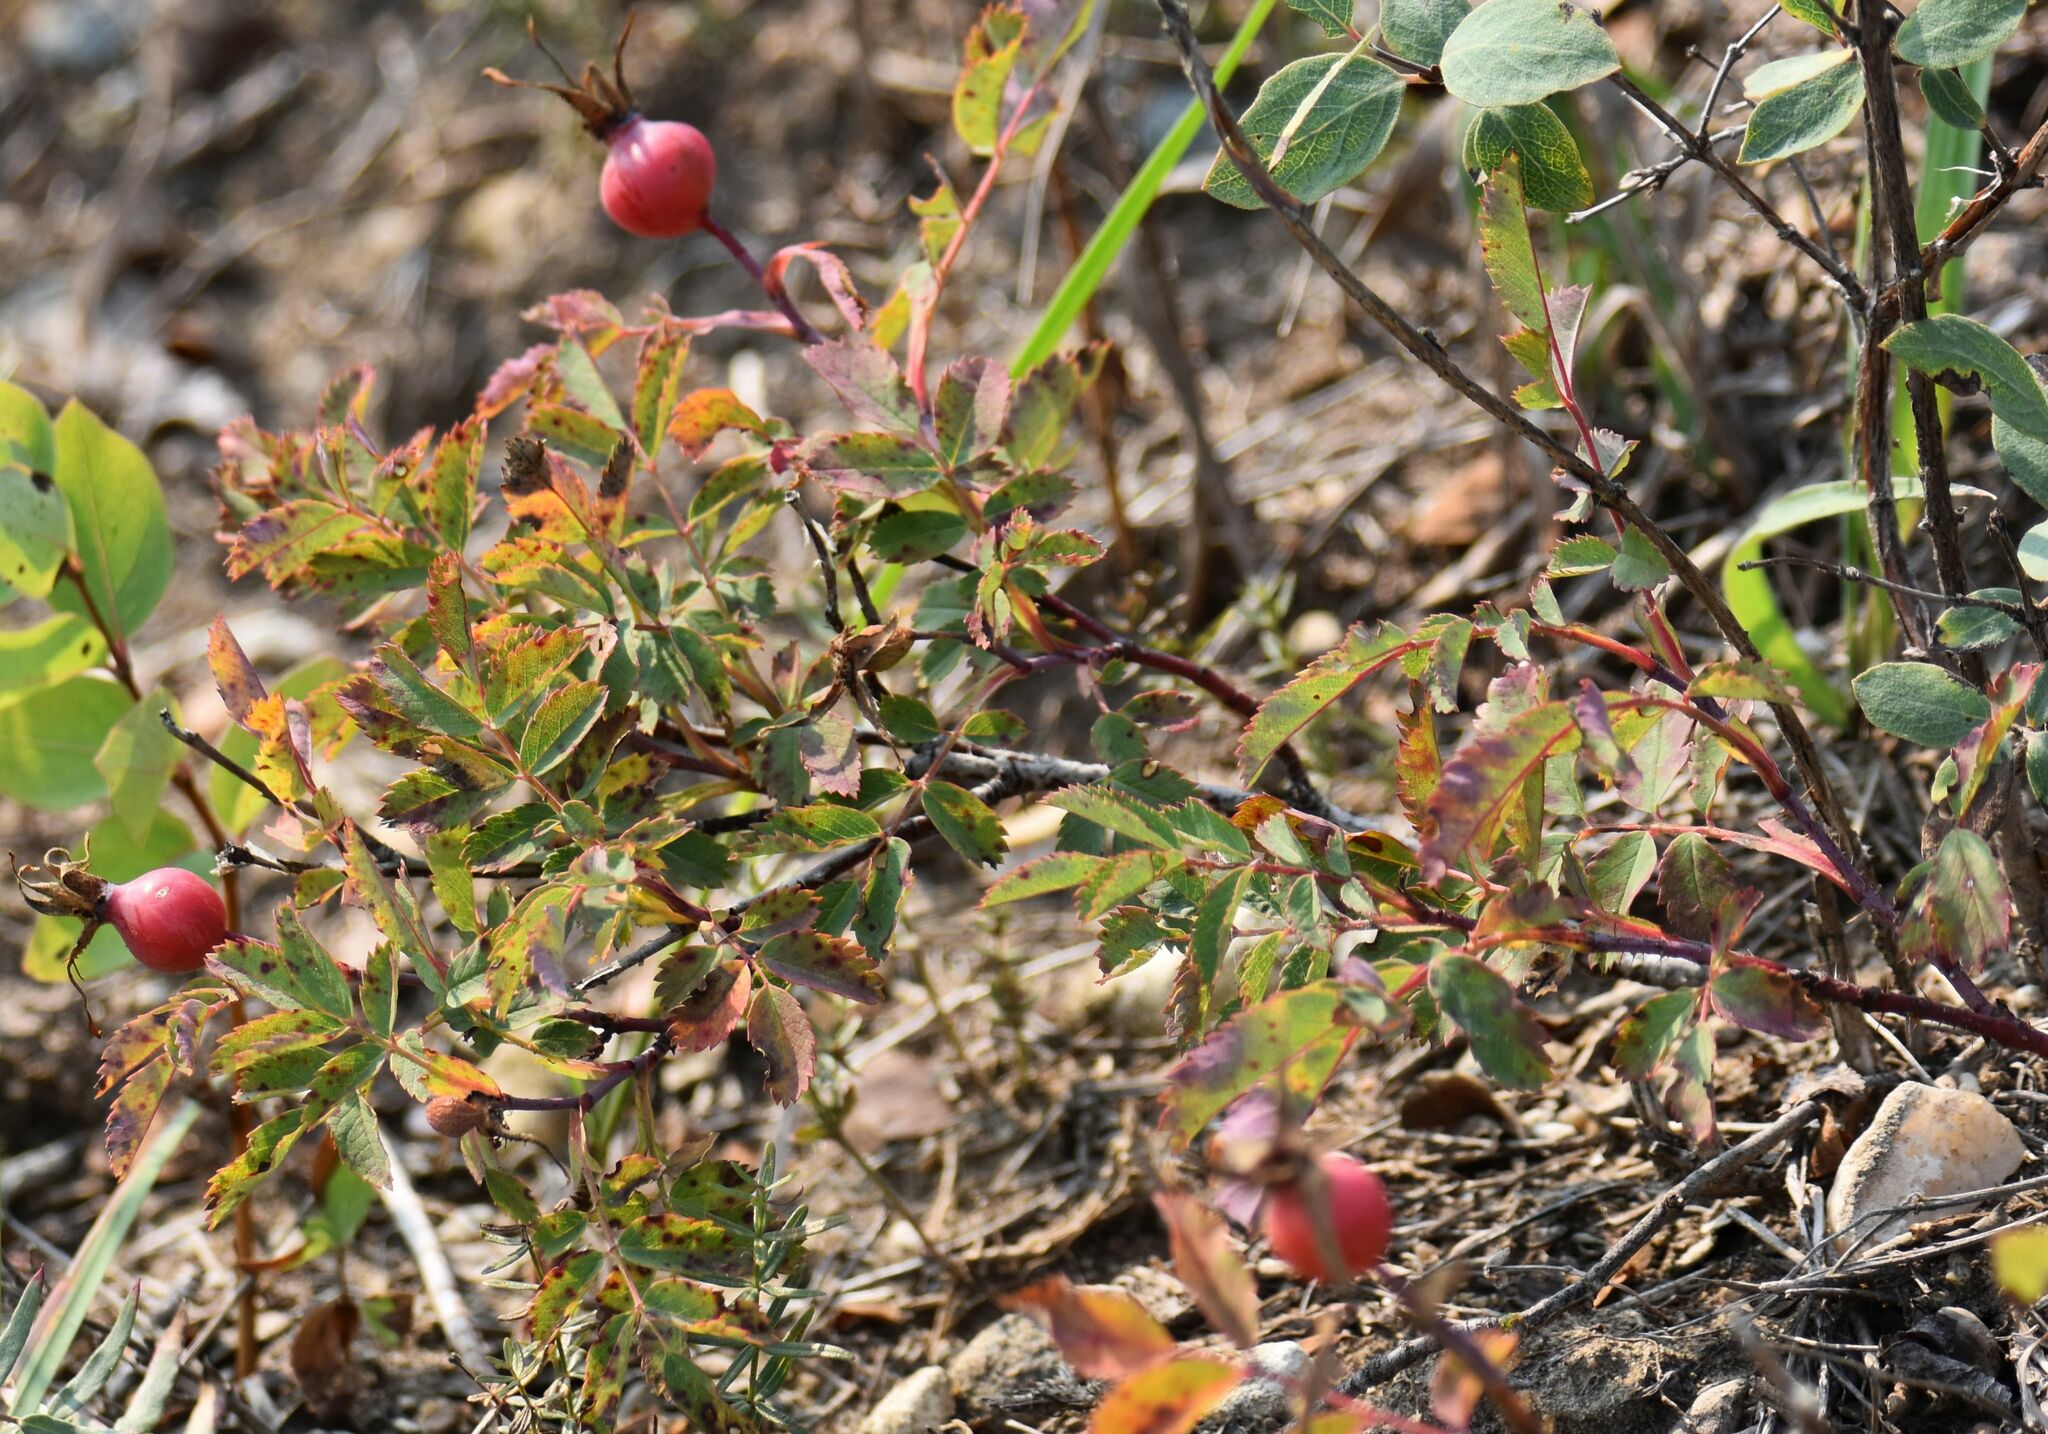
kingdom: Plantae
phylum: Tracheophyta
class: Magnoliopsida
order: Rosales
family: Rosaceae
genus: Rosa
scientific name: Rosa arkansana
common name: Prairie rose
